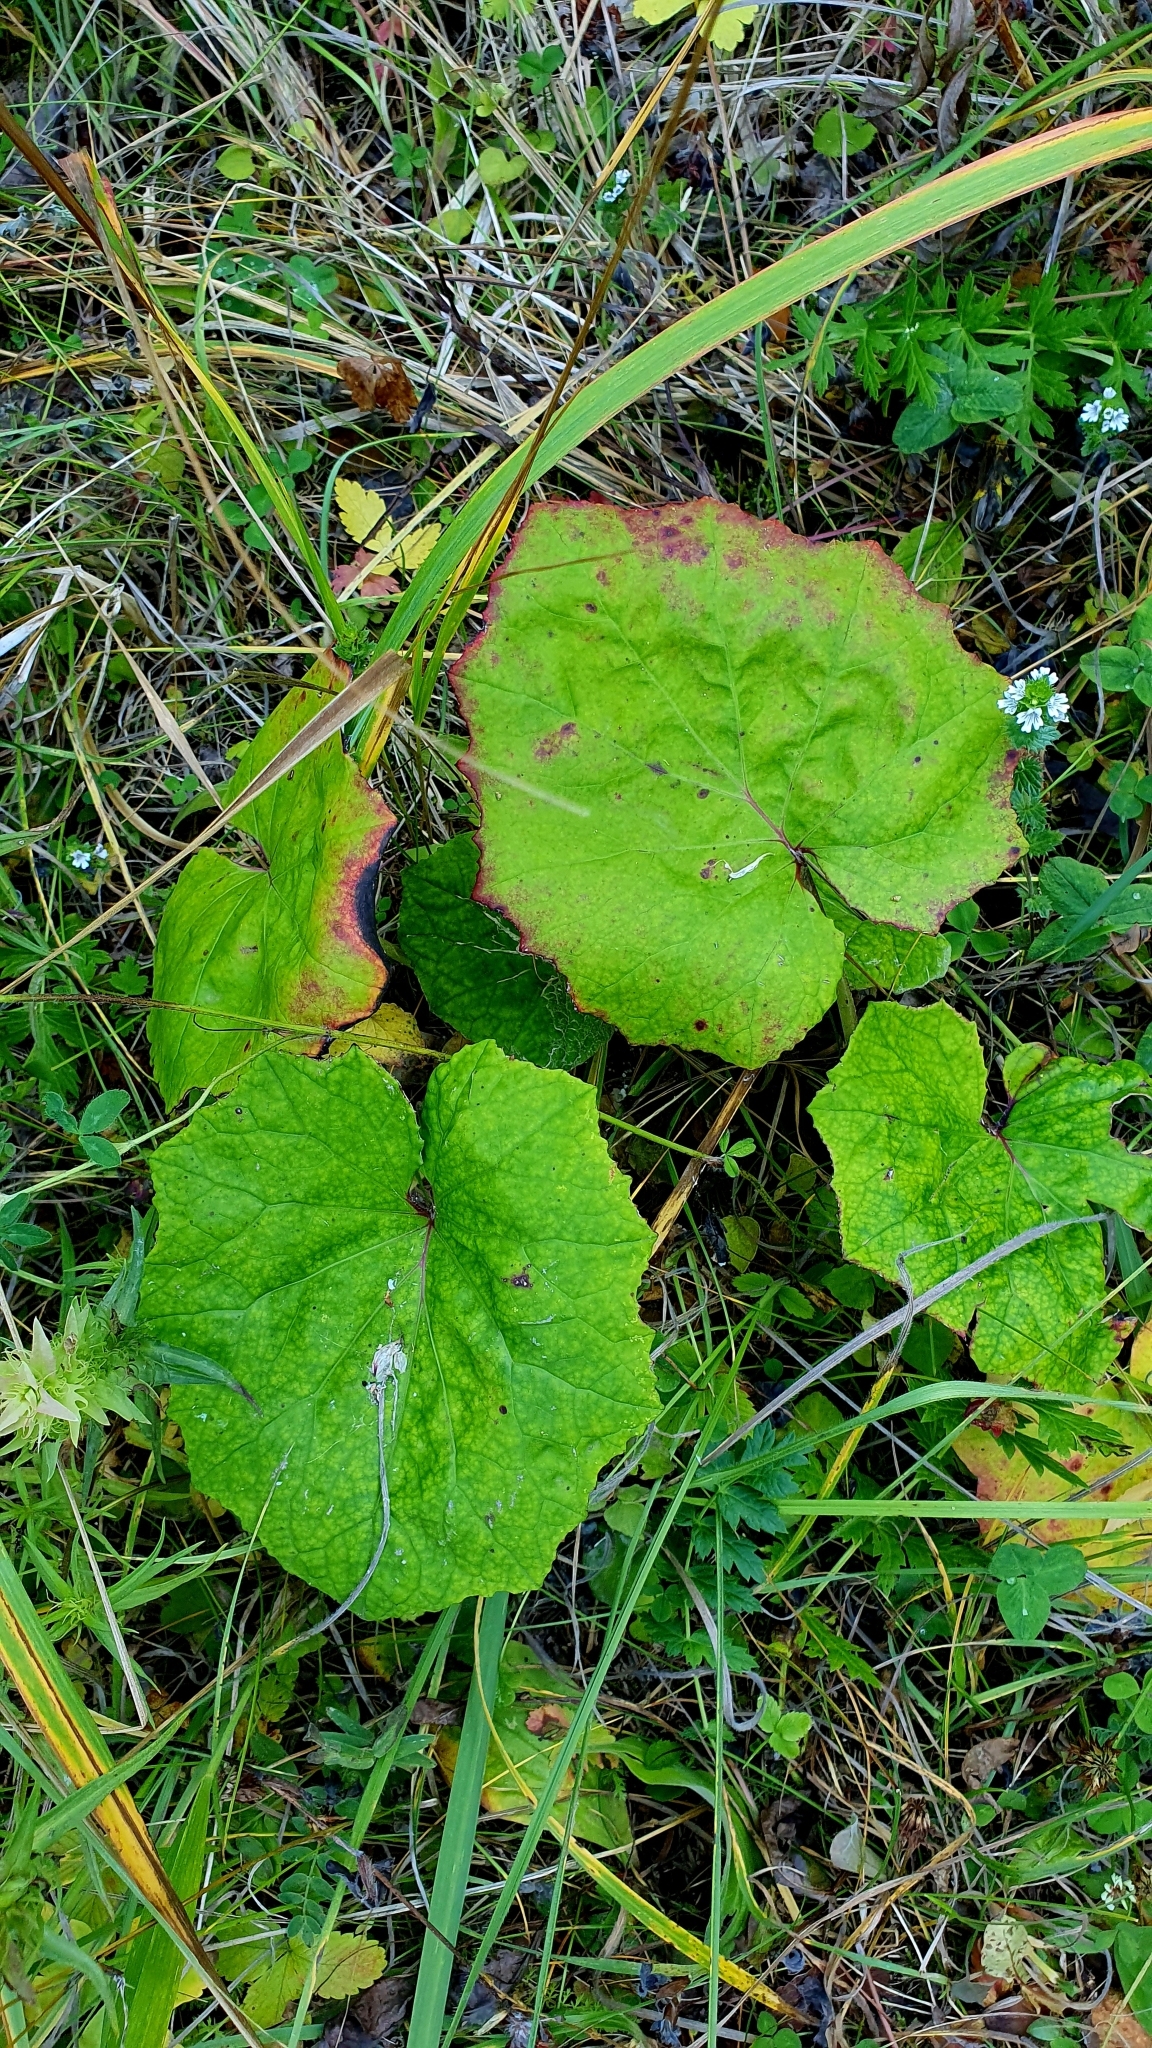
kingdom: Plantae
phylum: Tracheophyta
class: Magnoliopsida
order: Asterales
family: Asteraceae
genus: Tussilago
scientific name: Tussilago farfara
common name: Coltsfoot
